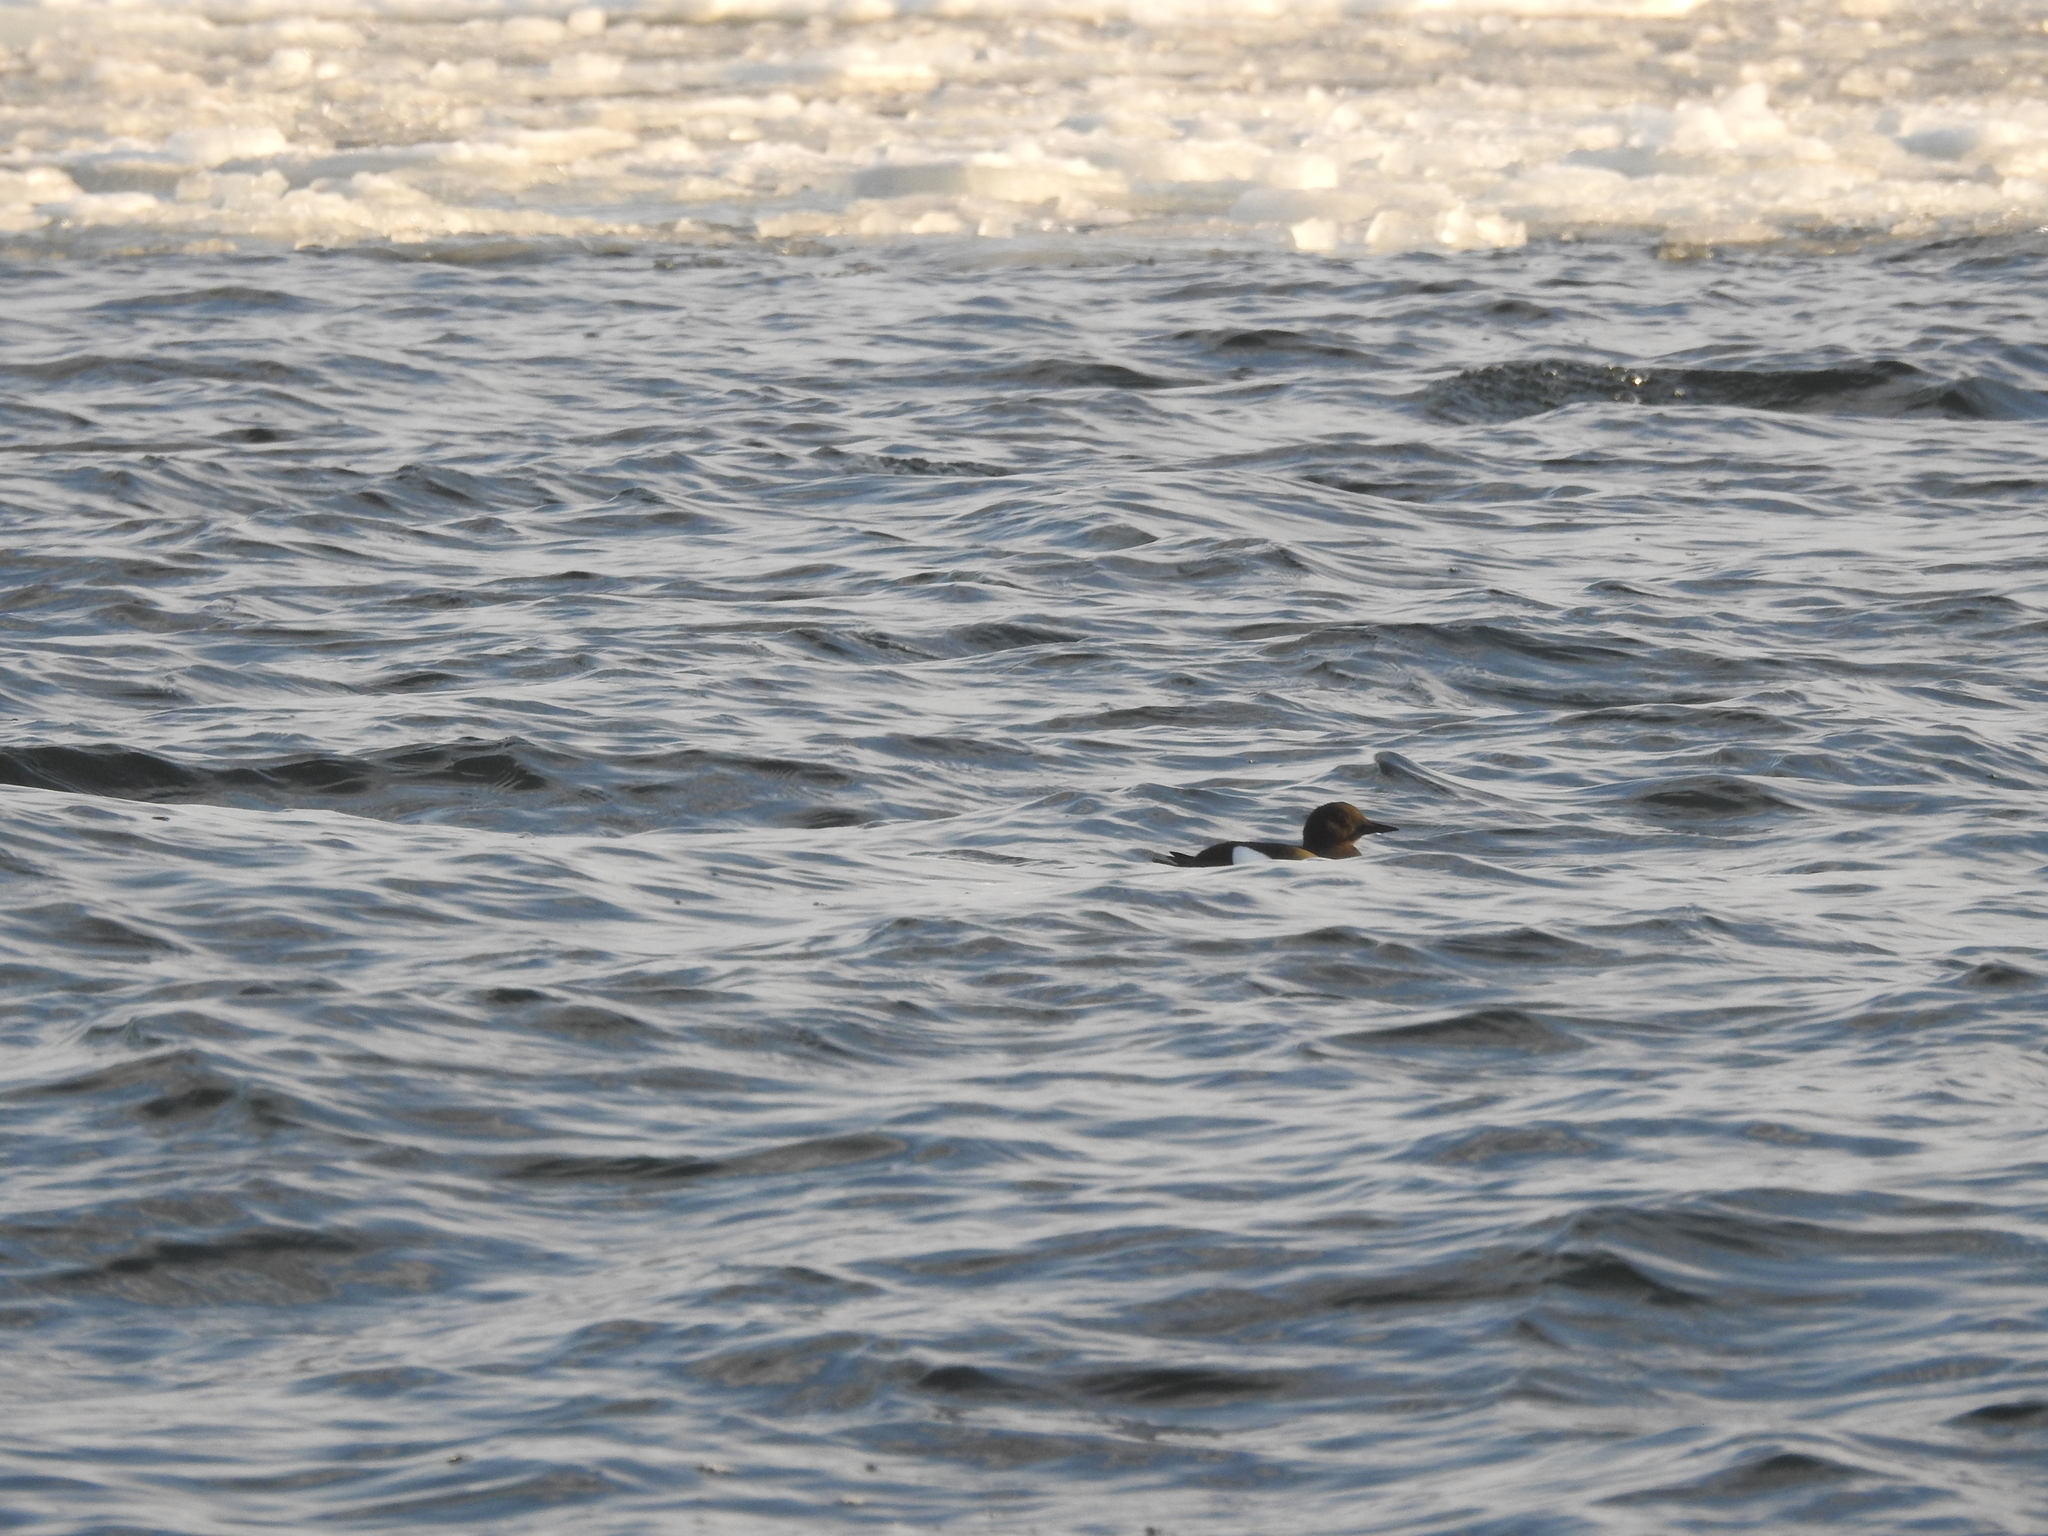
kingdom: Animalia
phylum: Chordata
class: Aves
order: Charadriiformes
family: Alcidae
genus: Cepphus
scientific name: Cepphus grylle
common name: Black guillemot
